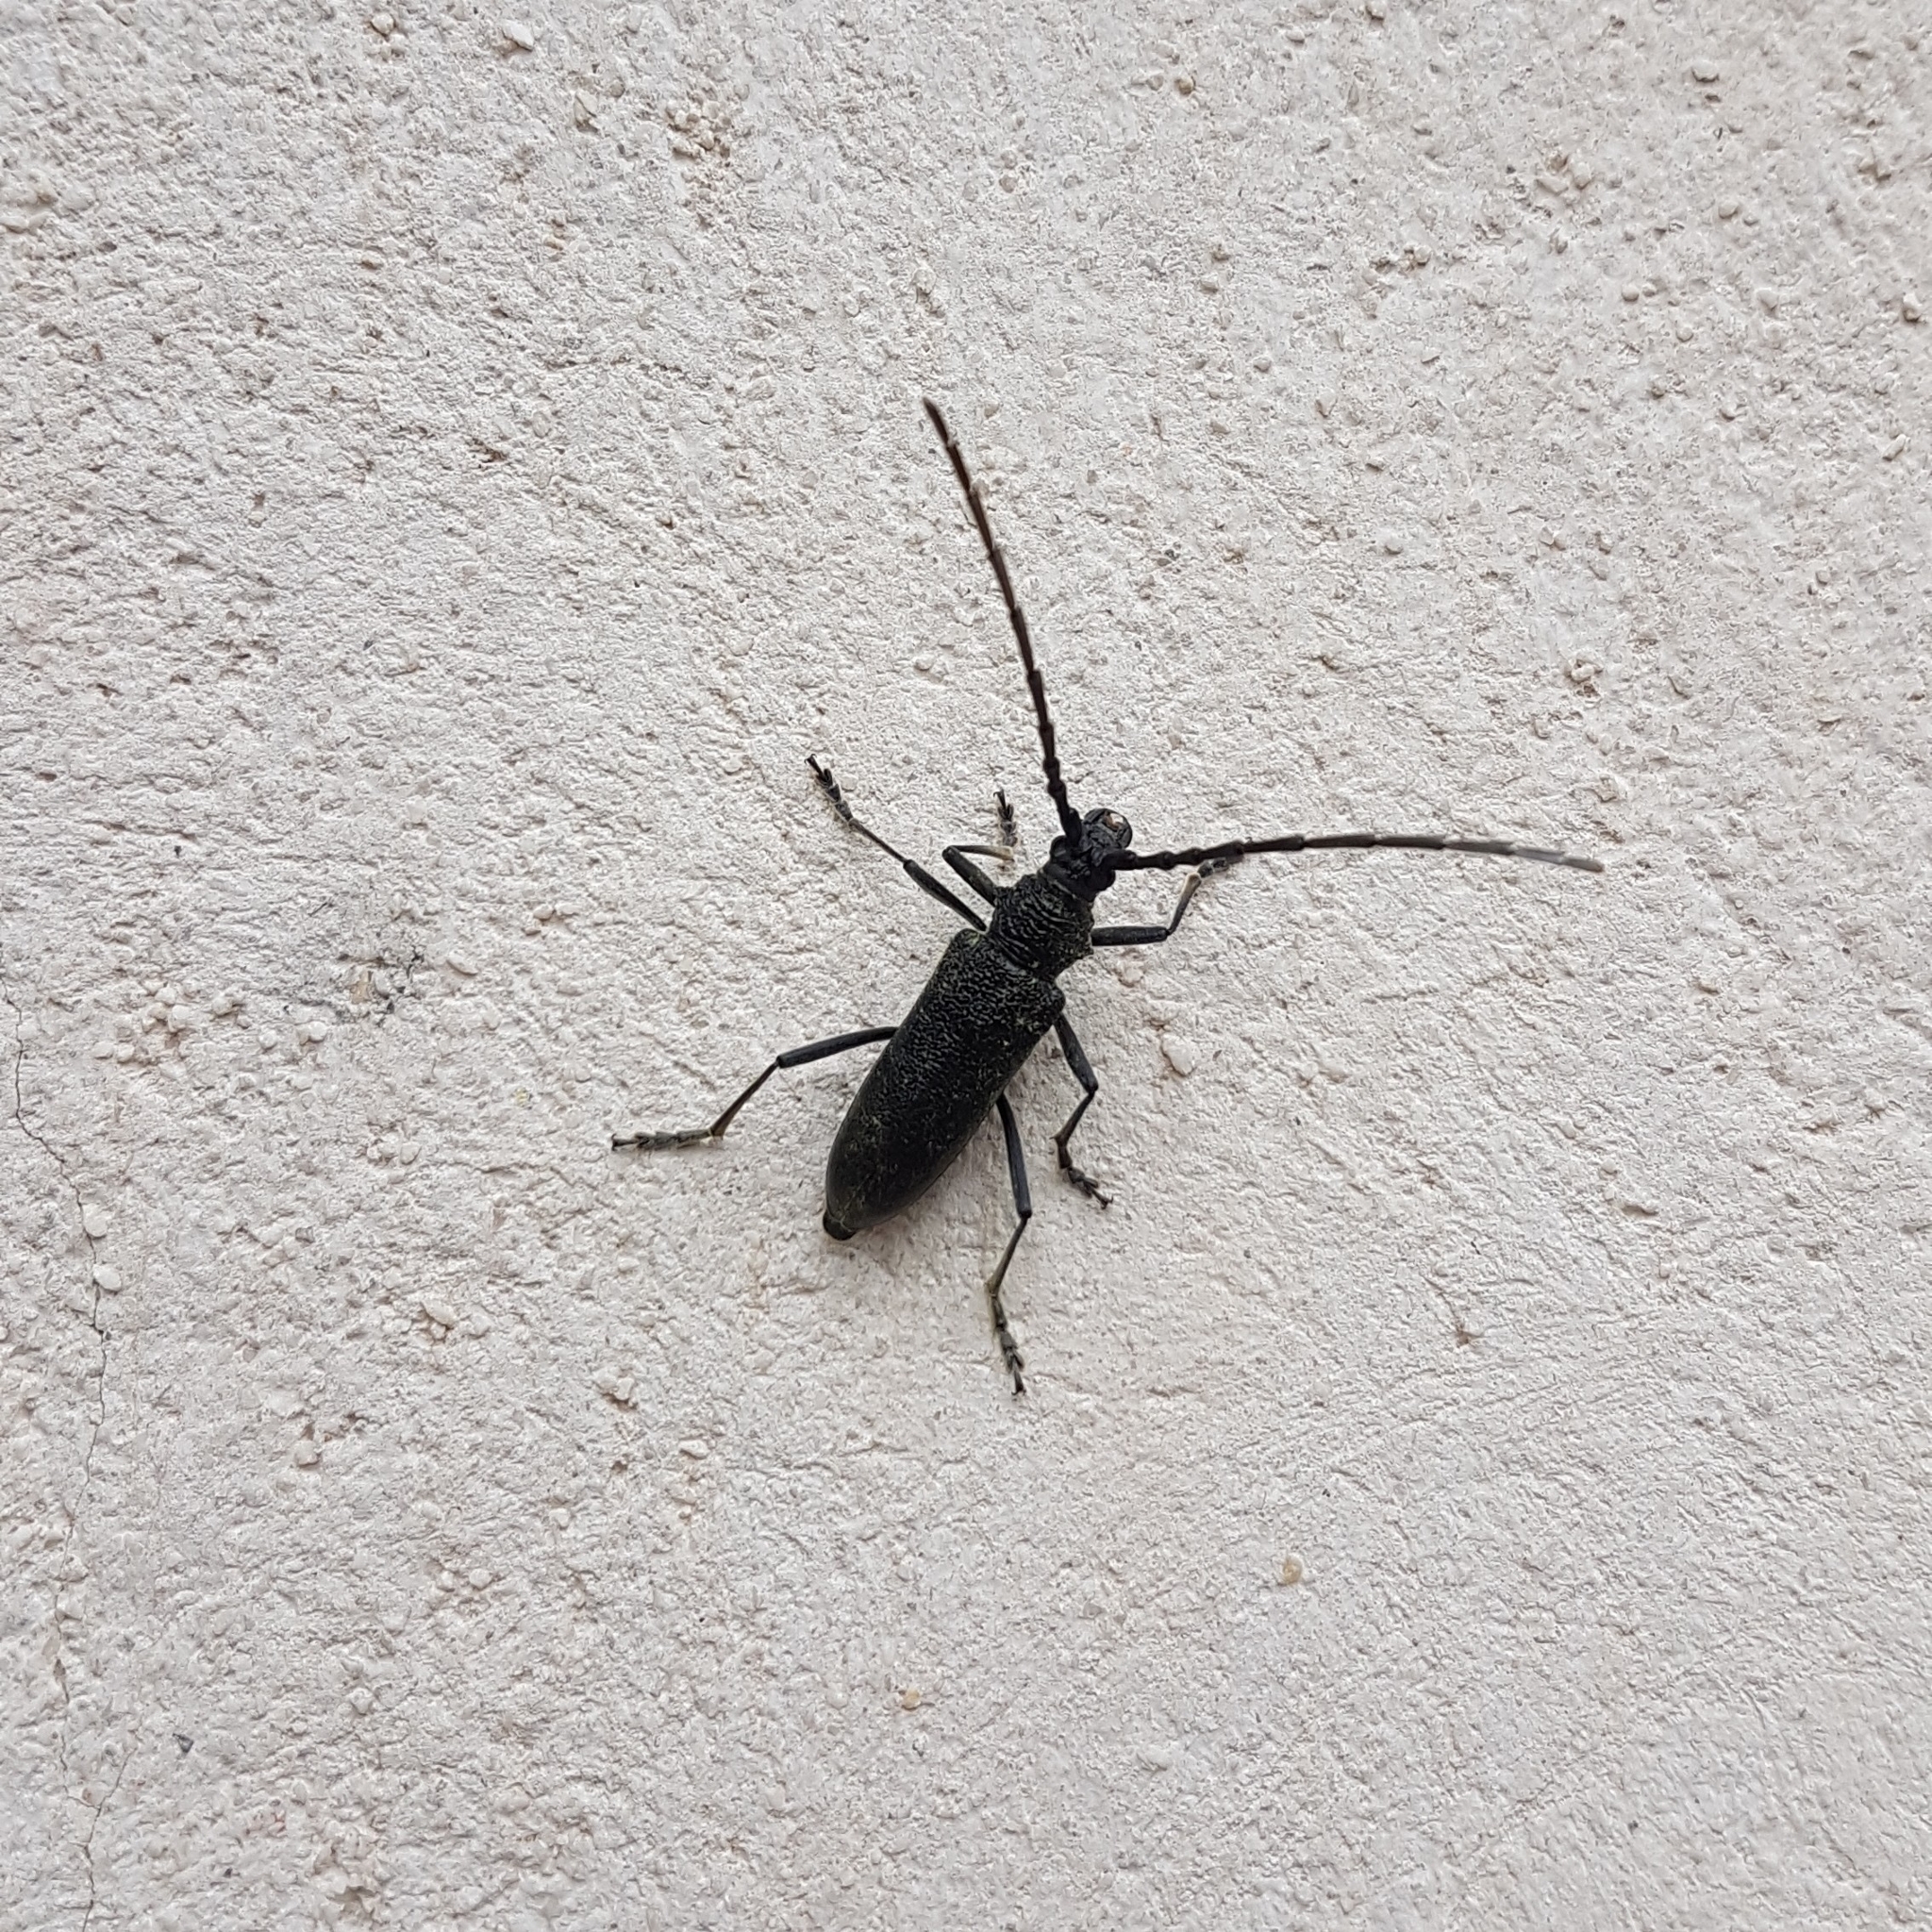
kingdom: Animalia
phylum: Arthropoda
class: Insecta
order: Coleoptera
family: Cerambycidae
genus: Cerambyx
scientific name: Cerambyx scopolii
